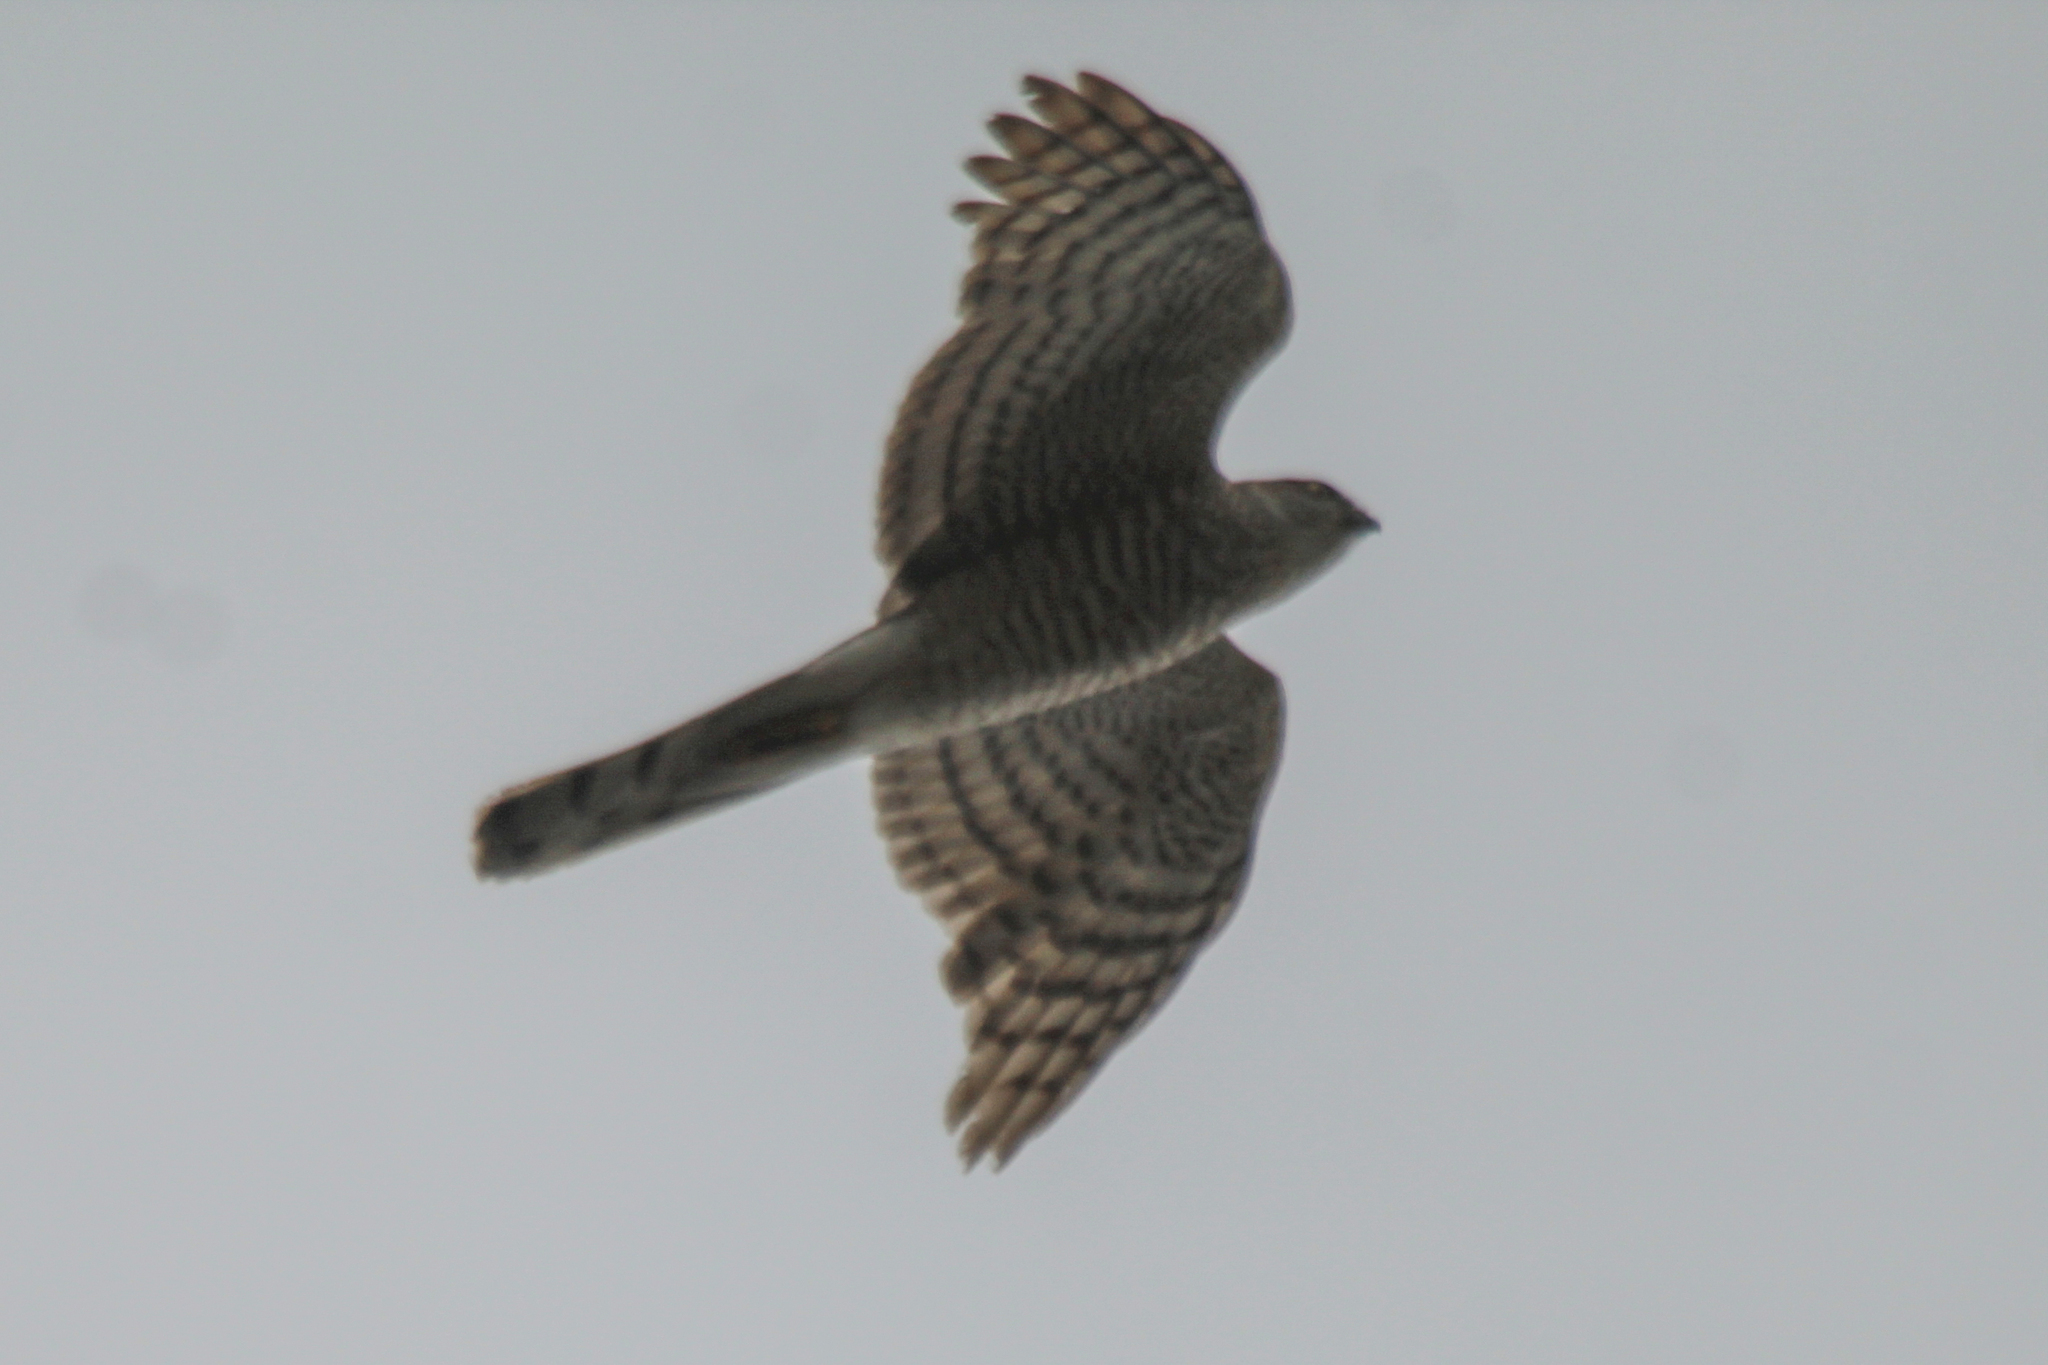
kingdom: Animalia
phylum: Chordata
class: Aves
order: Accipitriformes
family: Accipitridae
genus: Accipiter
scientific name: Accipiter nisus
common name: Eurasian sparrowhawk
